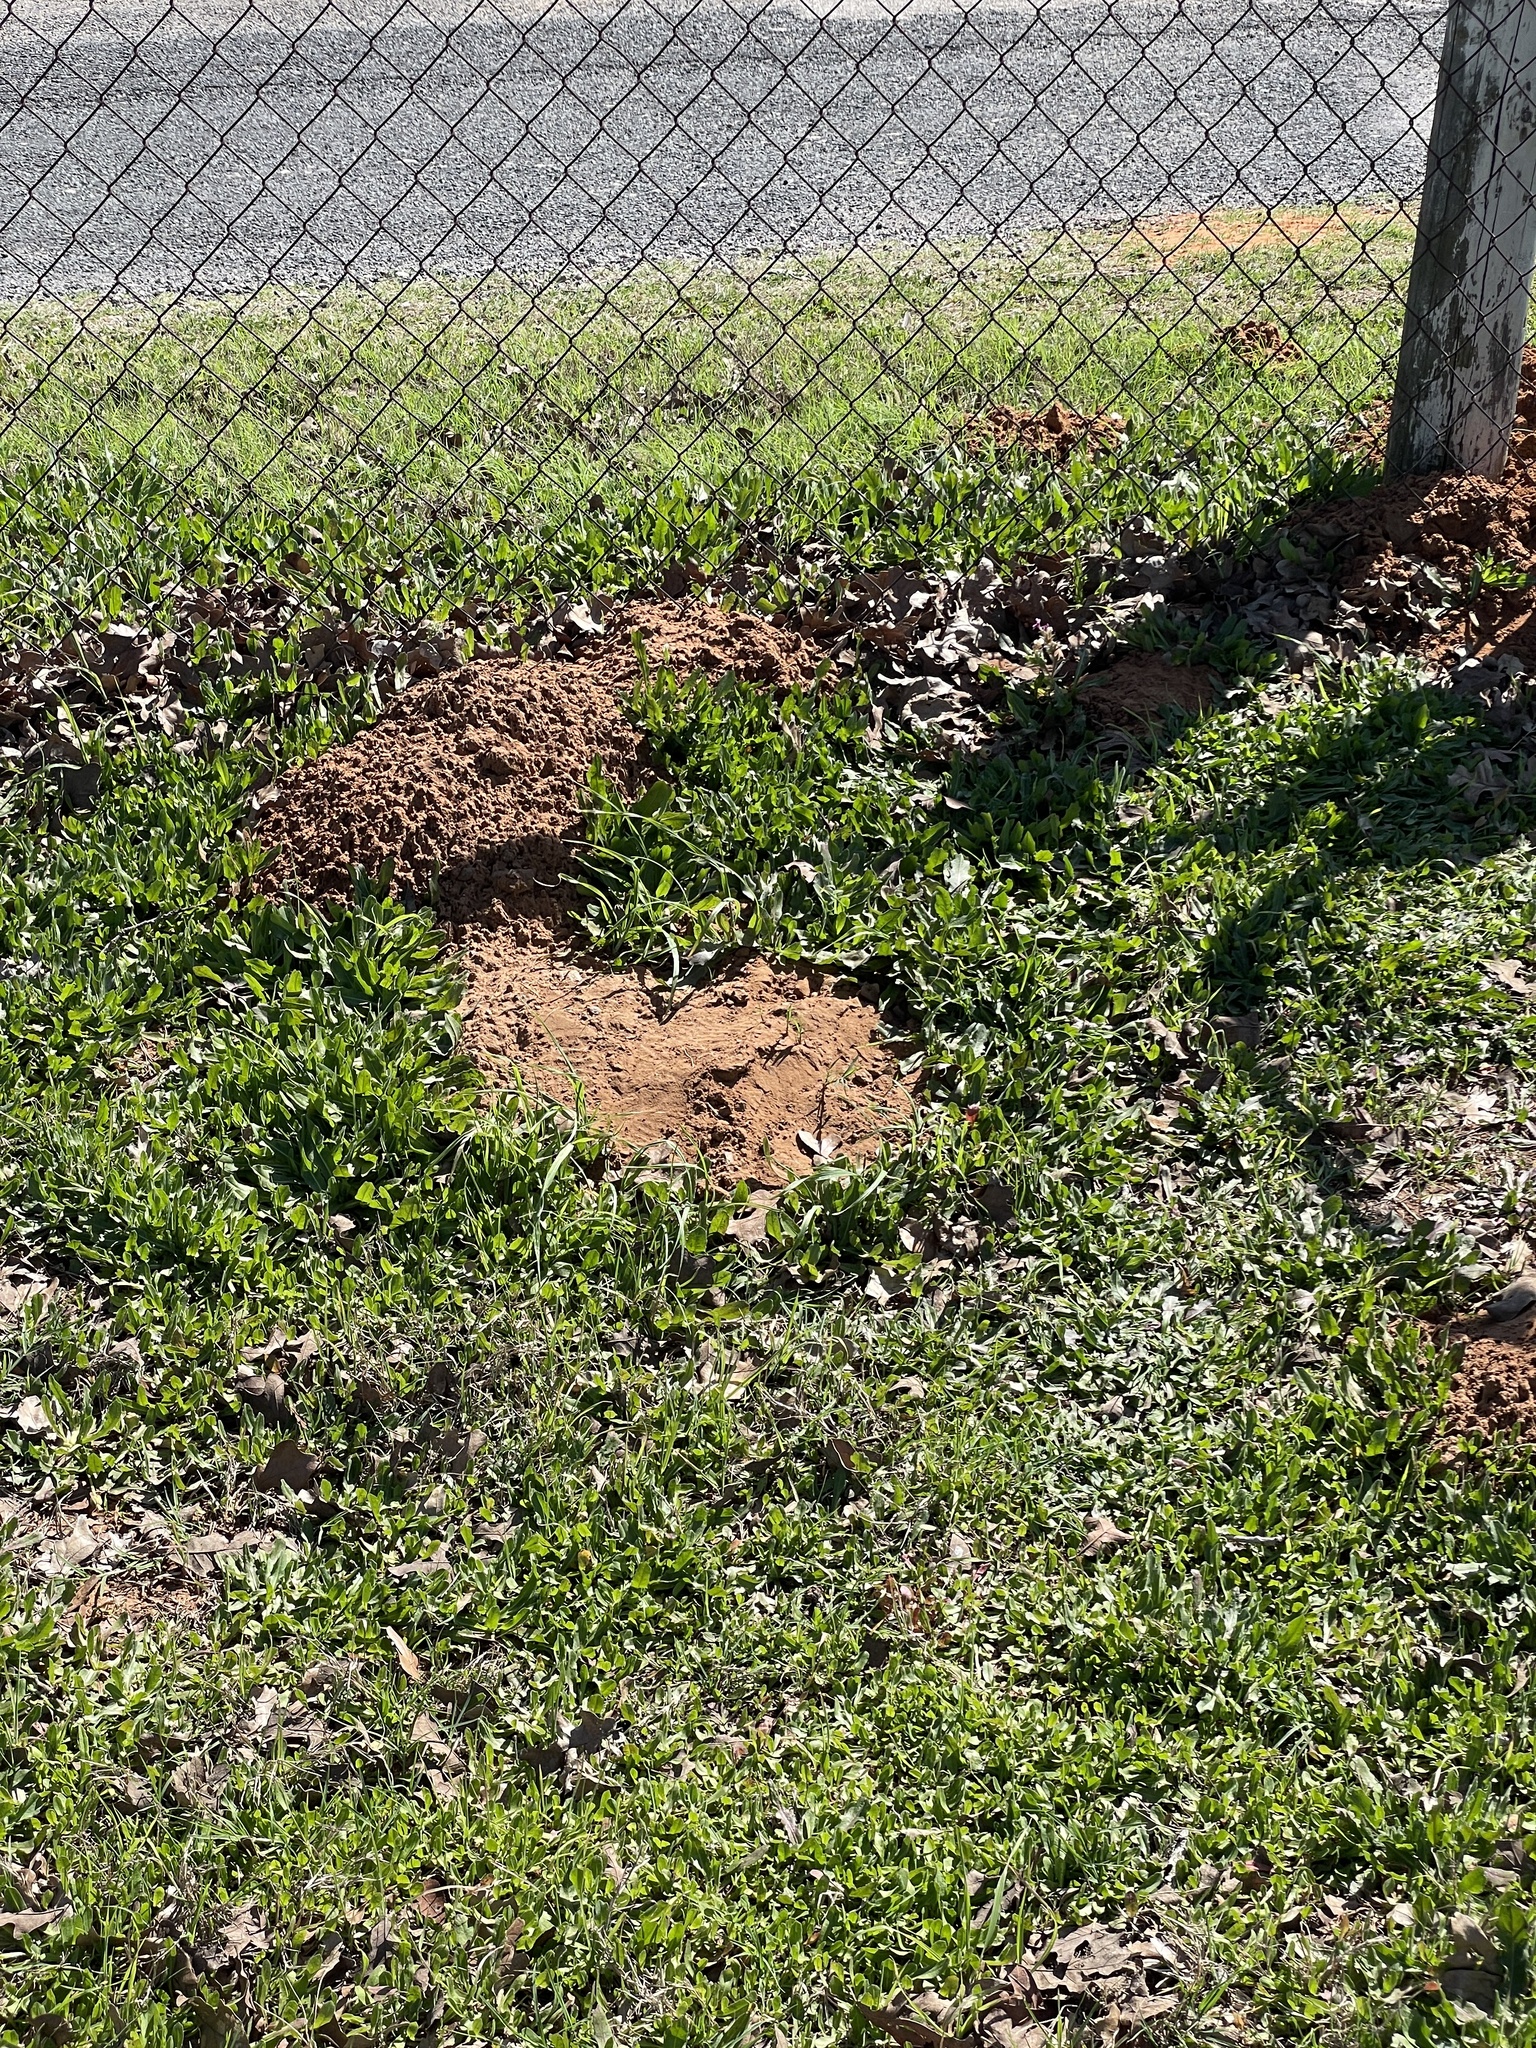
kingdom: Animalia
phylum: Chordata
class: Mammalia
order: Rodentia
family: Geomyidae
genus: Geomys
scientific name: Geomys attwateri
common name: Attwater's pocket gopher
